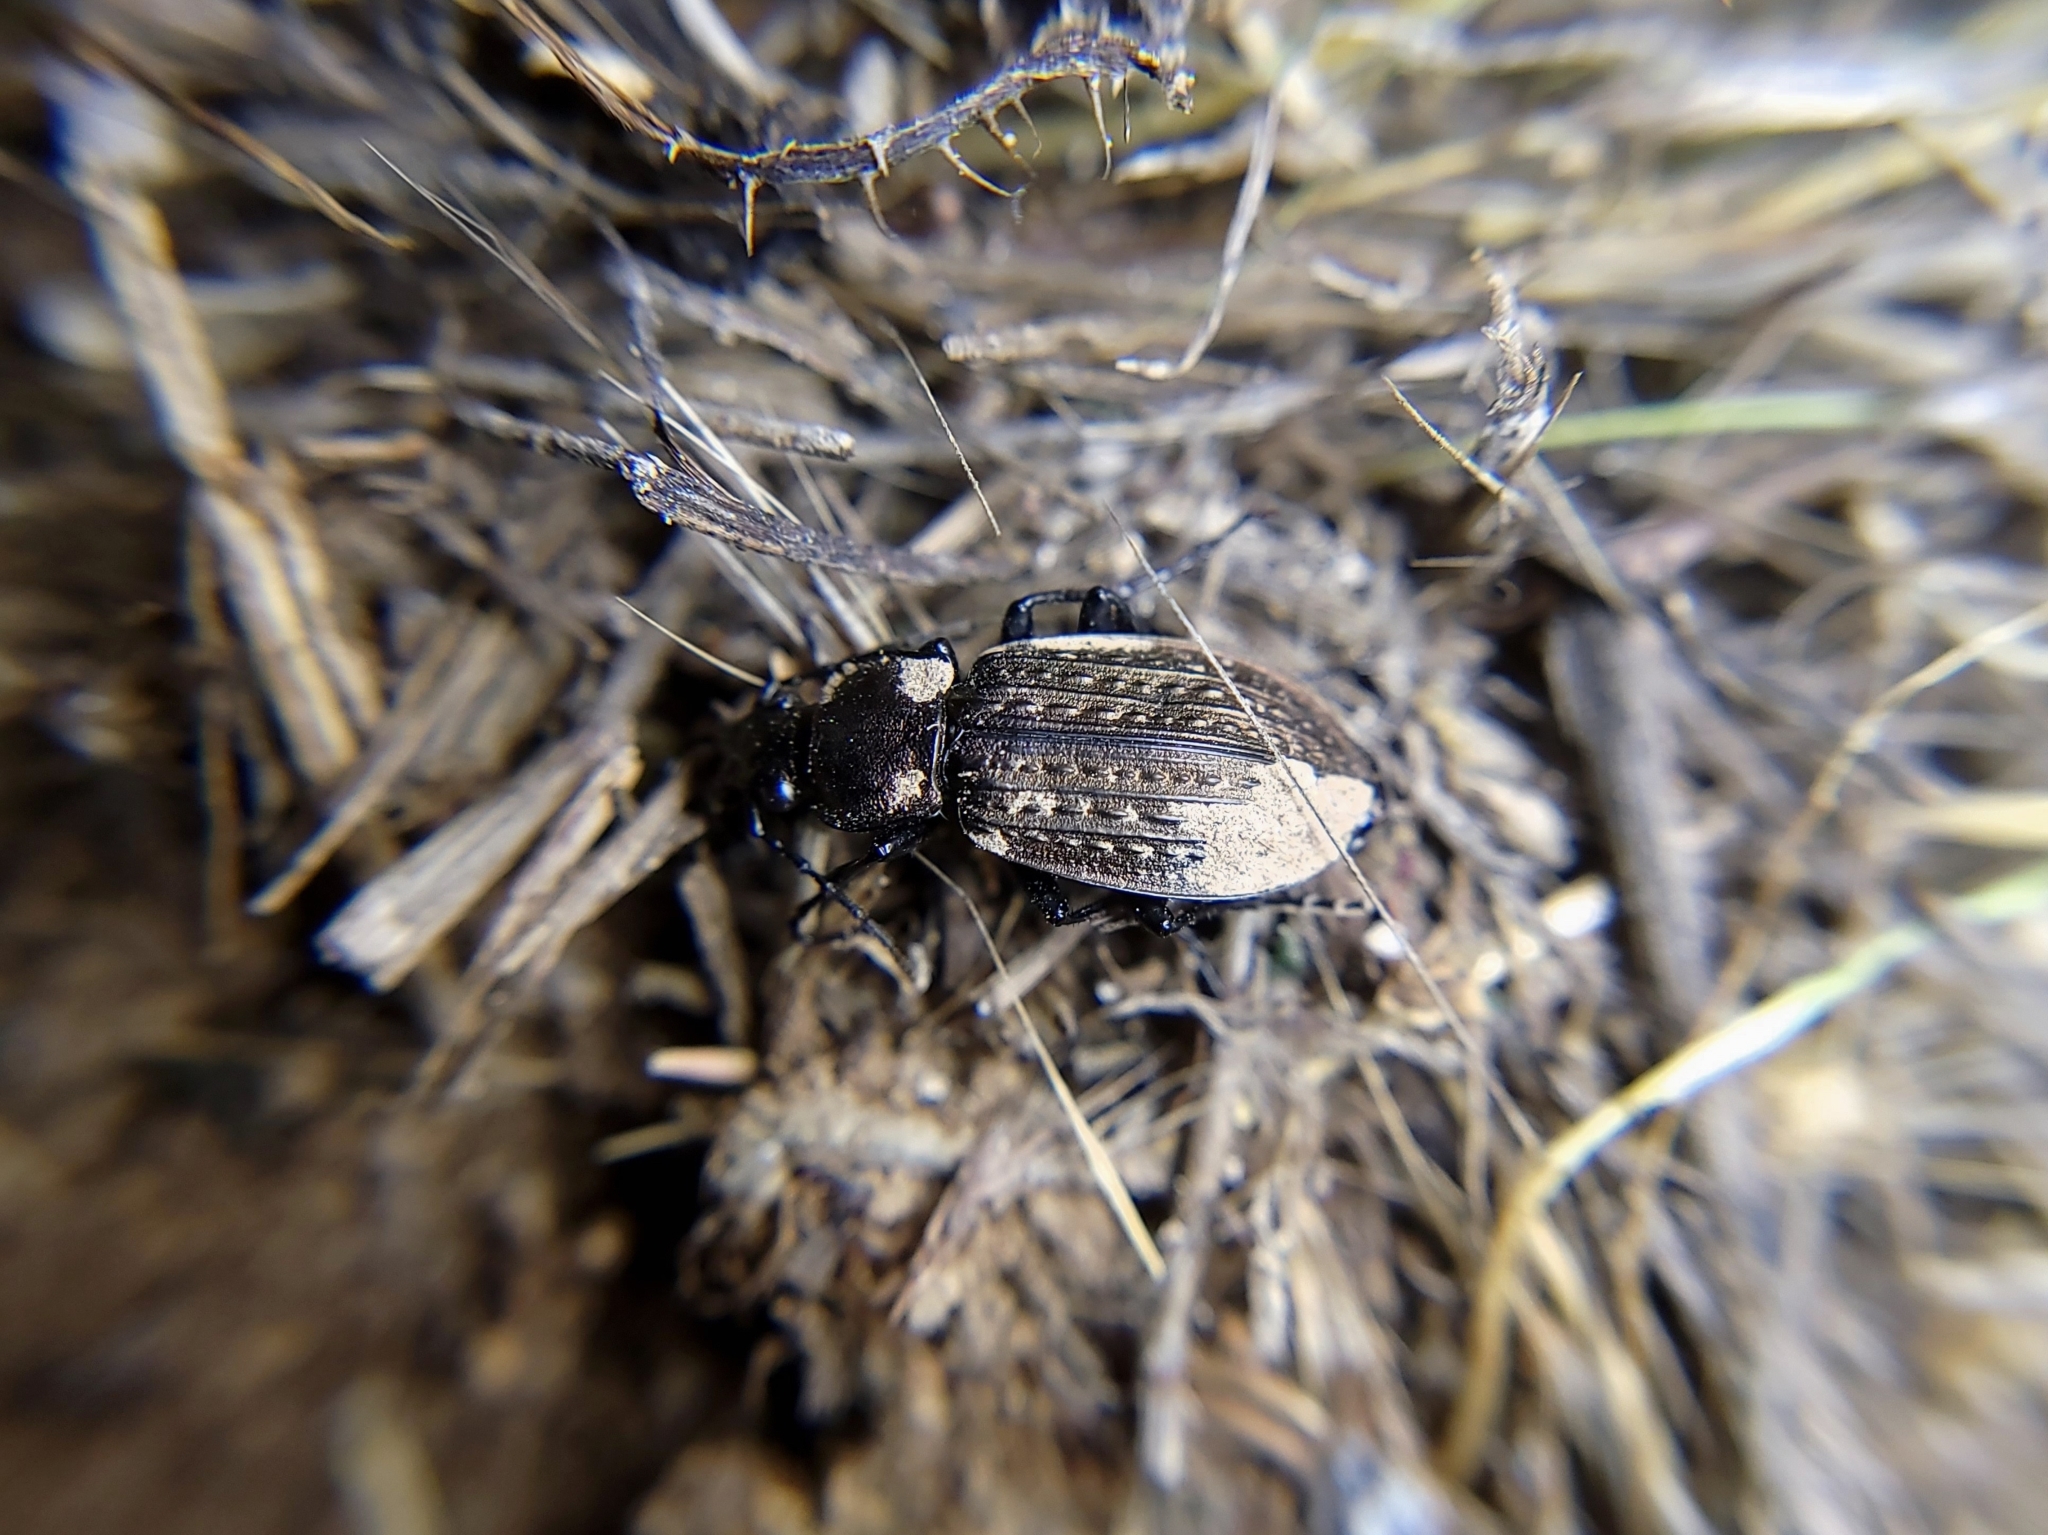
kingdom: Animalia
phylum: Arthropoda
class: Insecta
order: Coleoptera
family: Carabidae
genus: Carabus
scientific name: Carabus granulatus
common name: Granulate ground beetle
